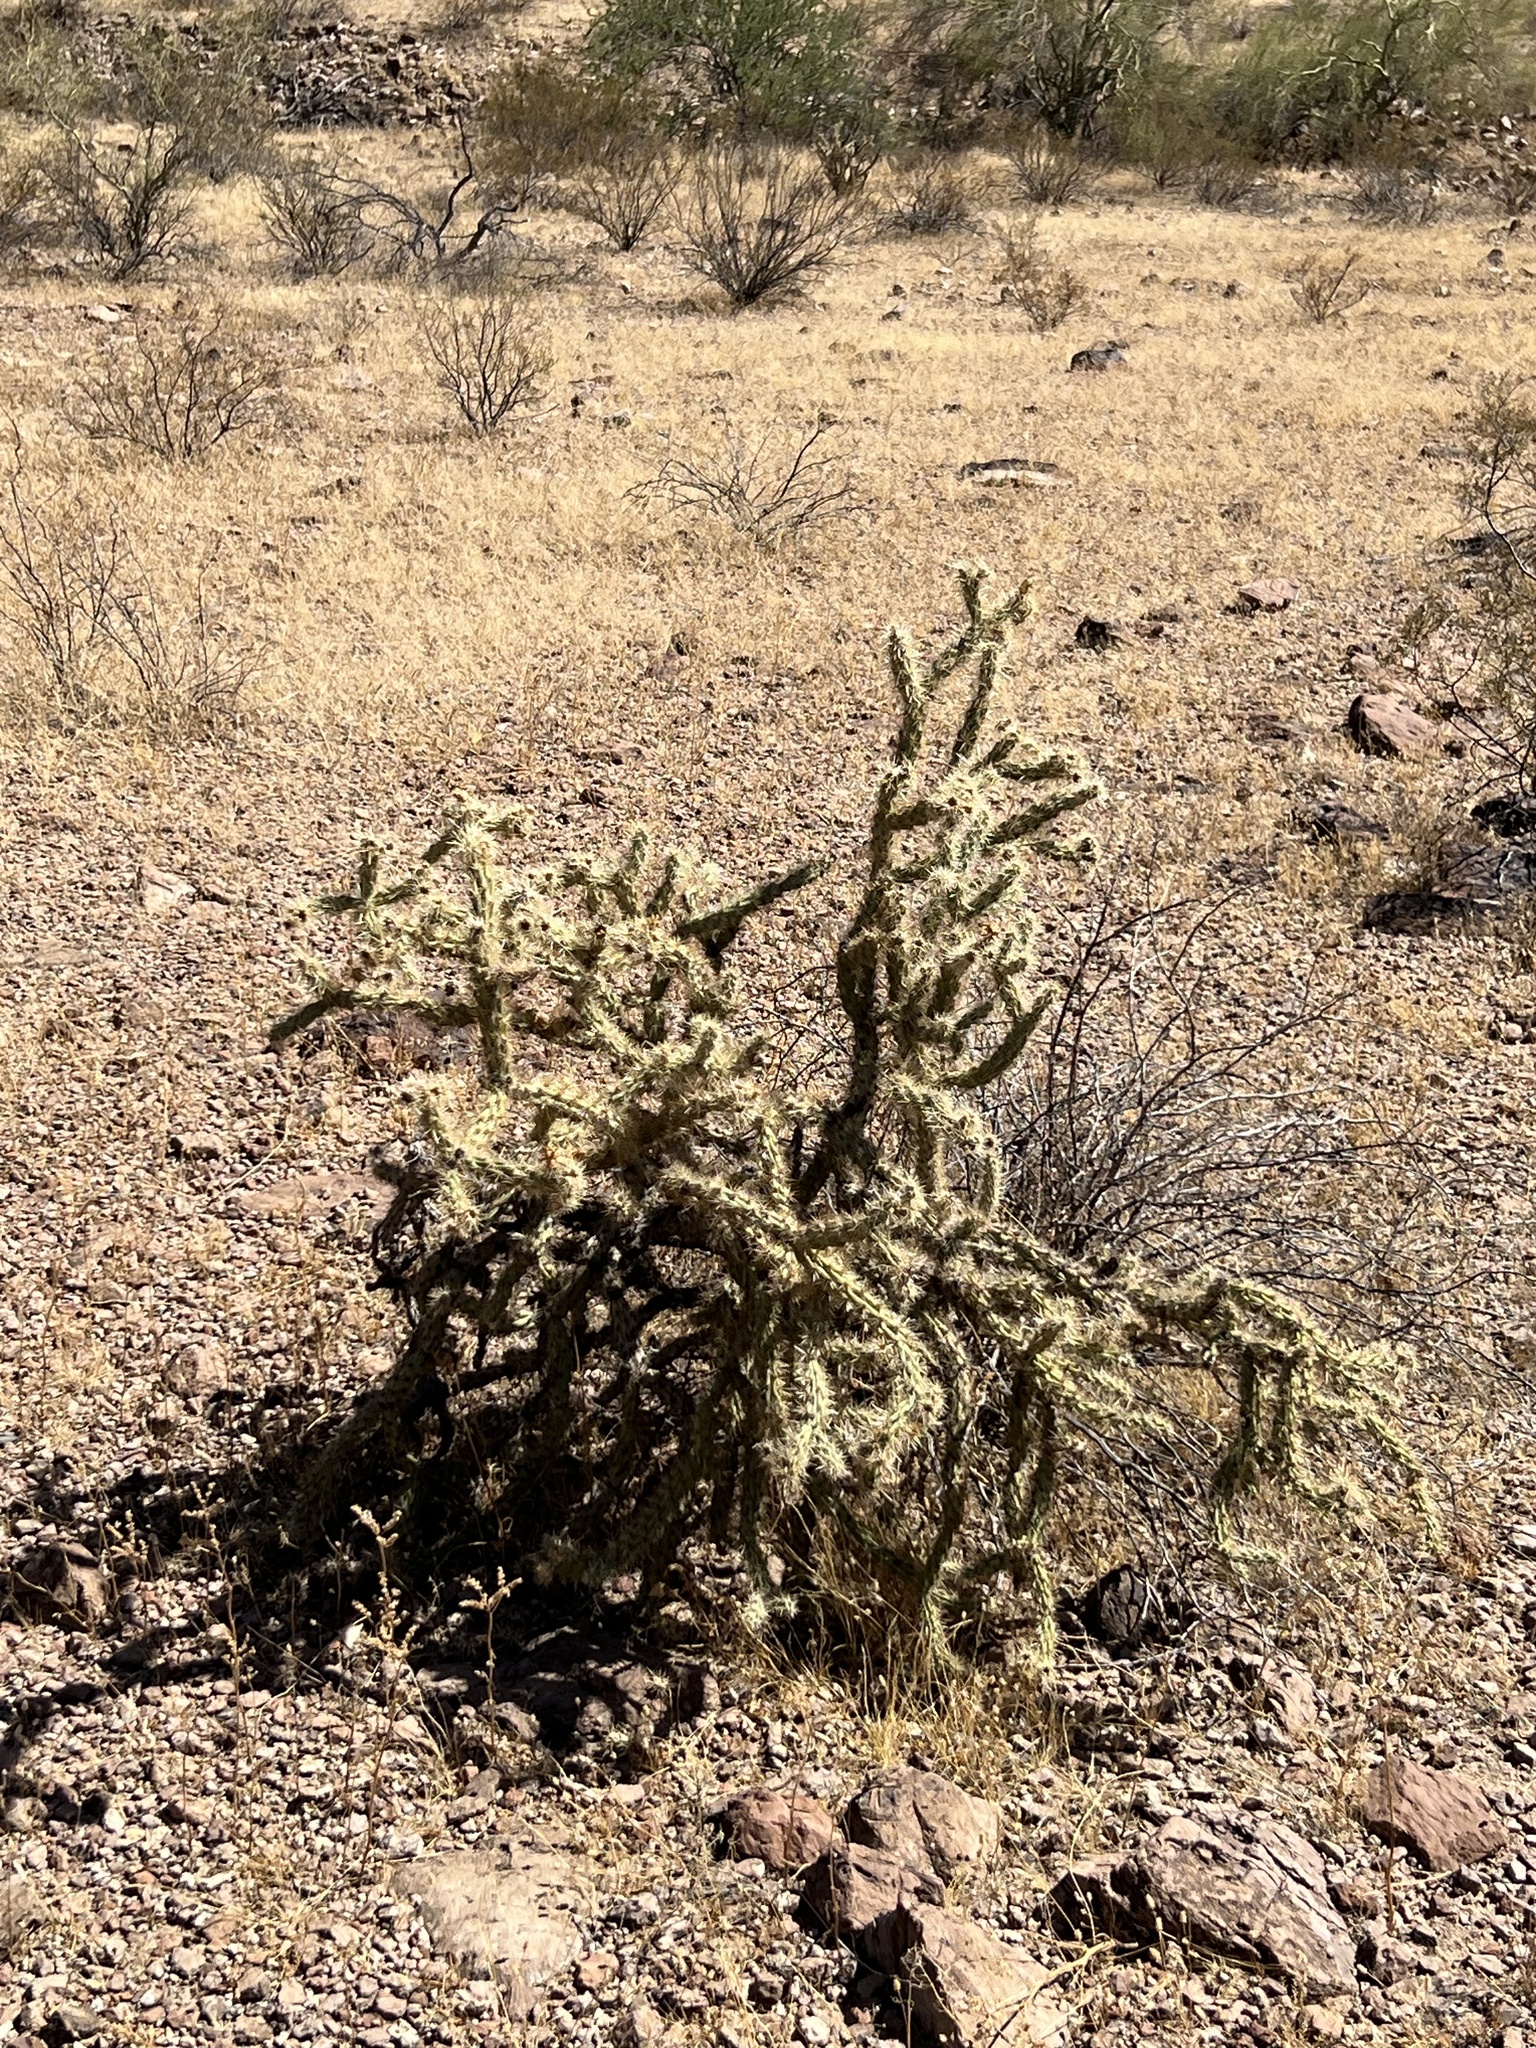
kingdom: Plantae
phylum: Tracheophyta
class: Magnoliopsida
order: Caryophyllales
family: Cactaceae
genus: Cylindropuntia
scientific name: Cylindropuntia acanthocarpa
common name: Buckhorn cholla
